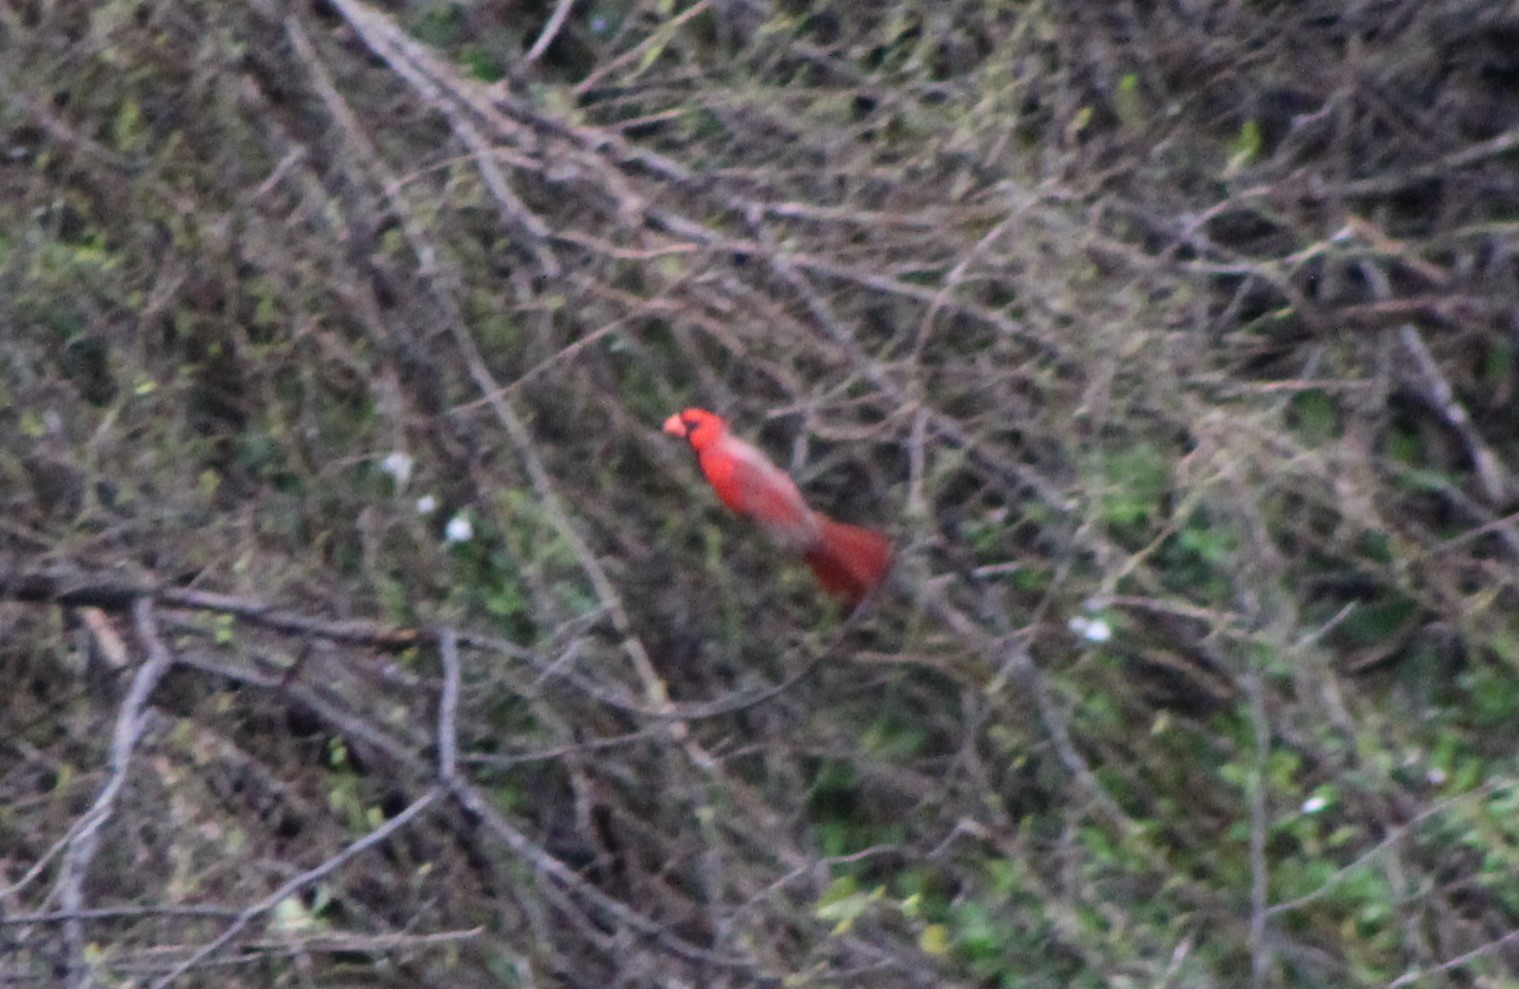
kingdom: Animalia
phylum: Chordata
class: Aves
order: Passeriformes
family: Cardinalidae
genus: Cardinalis
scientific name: Cardinalis cardinalis
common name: Northern cardinal
